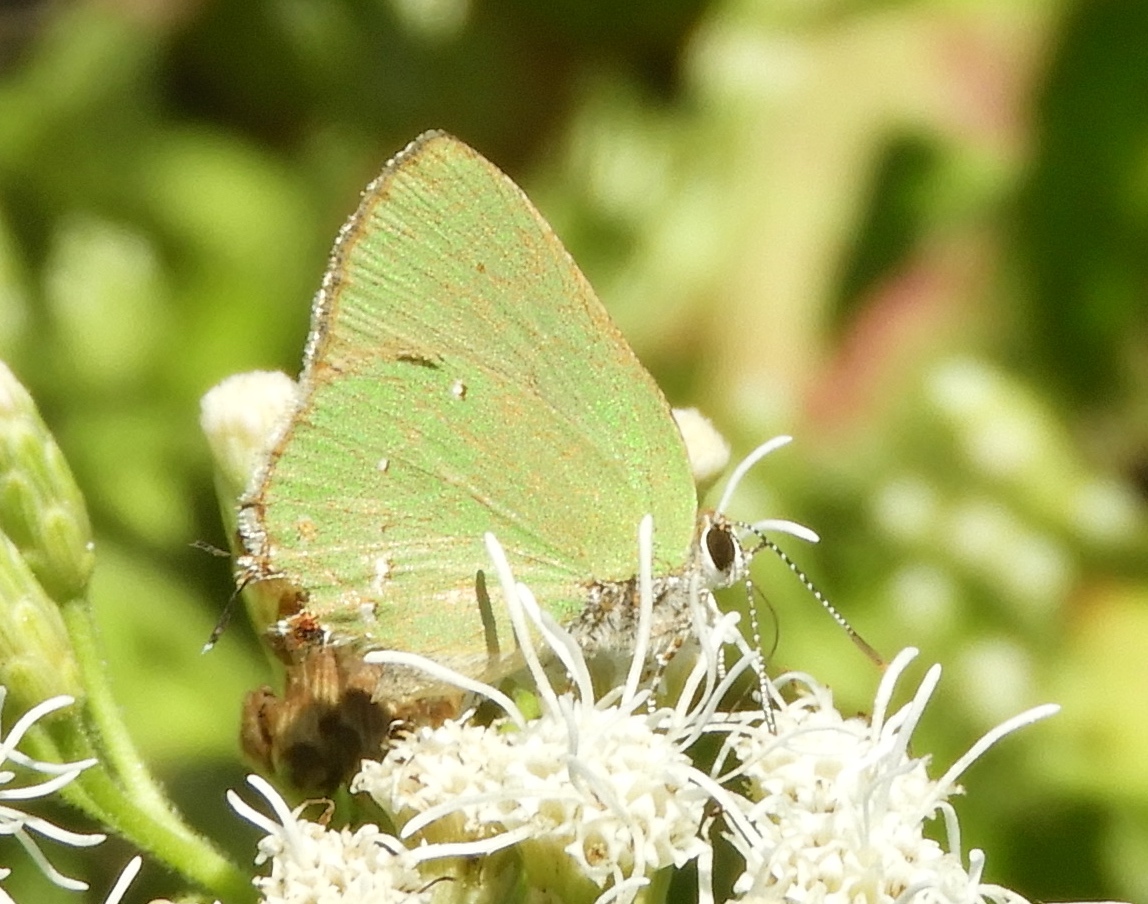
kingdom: Animalia
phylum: Arthropoda
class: Insecta
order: Lepidoptera
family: Lycaenidae
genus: Thecla
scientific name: Thecla herodotus
